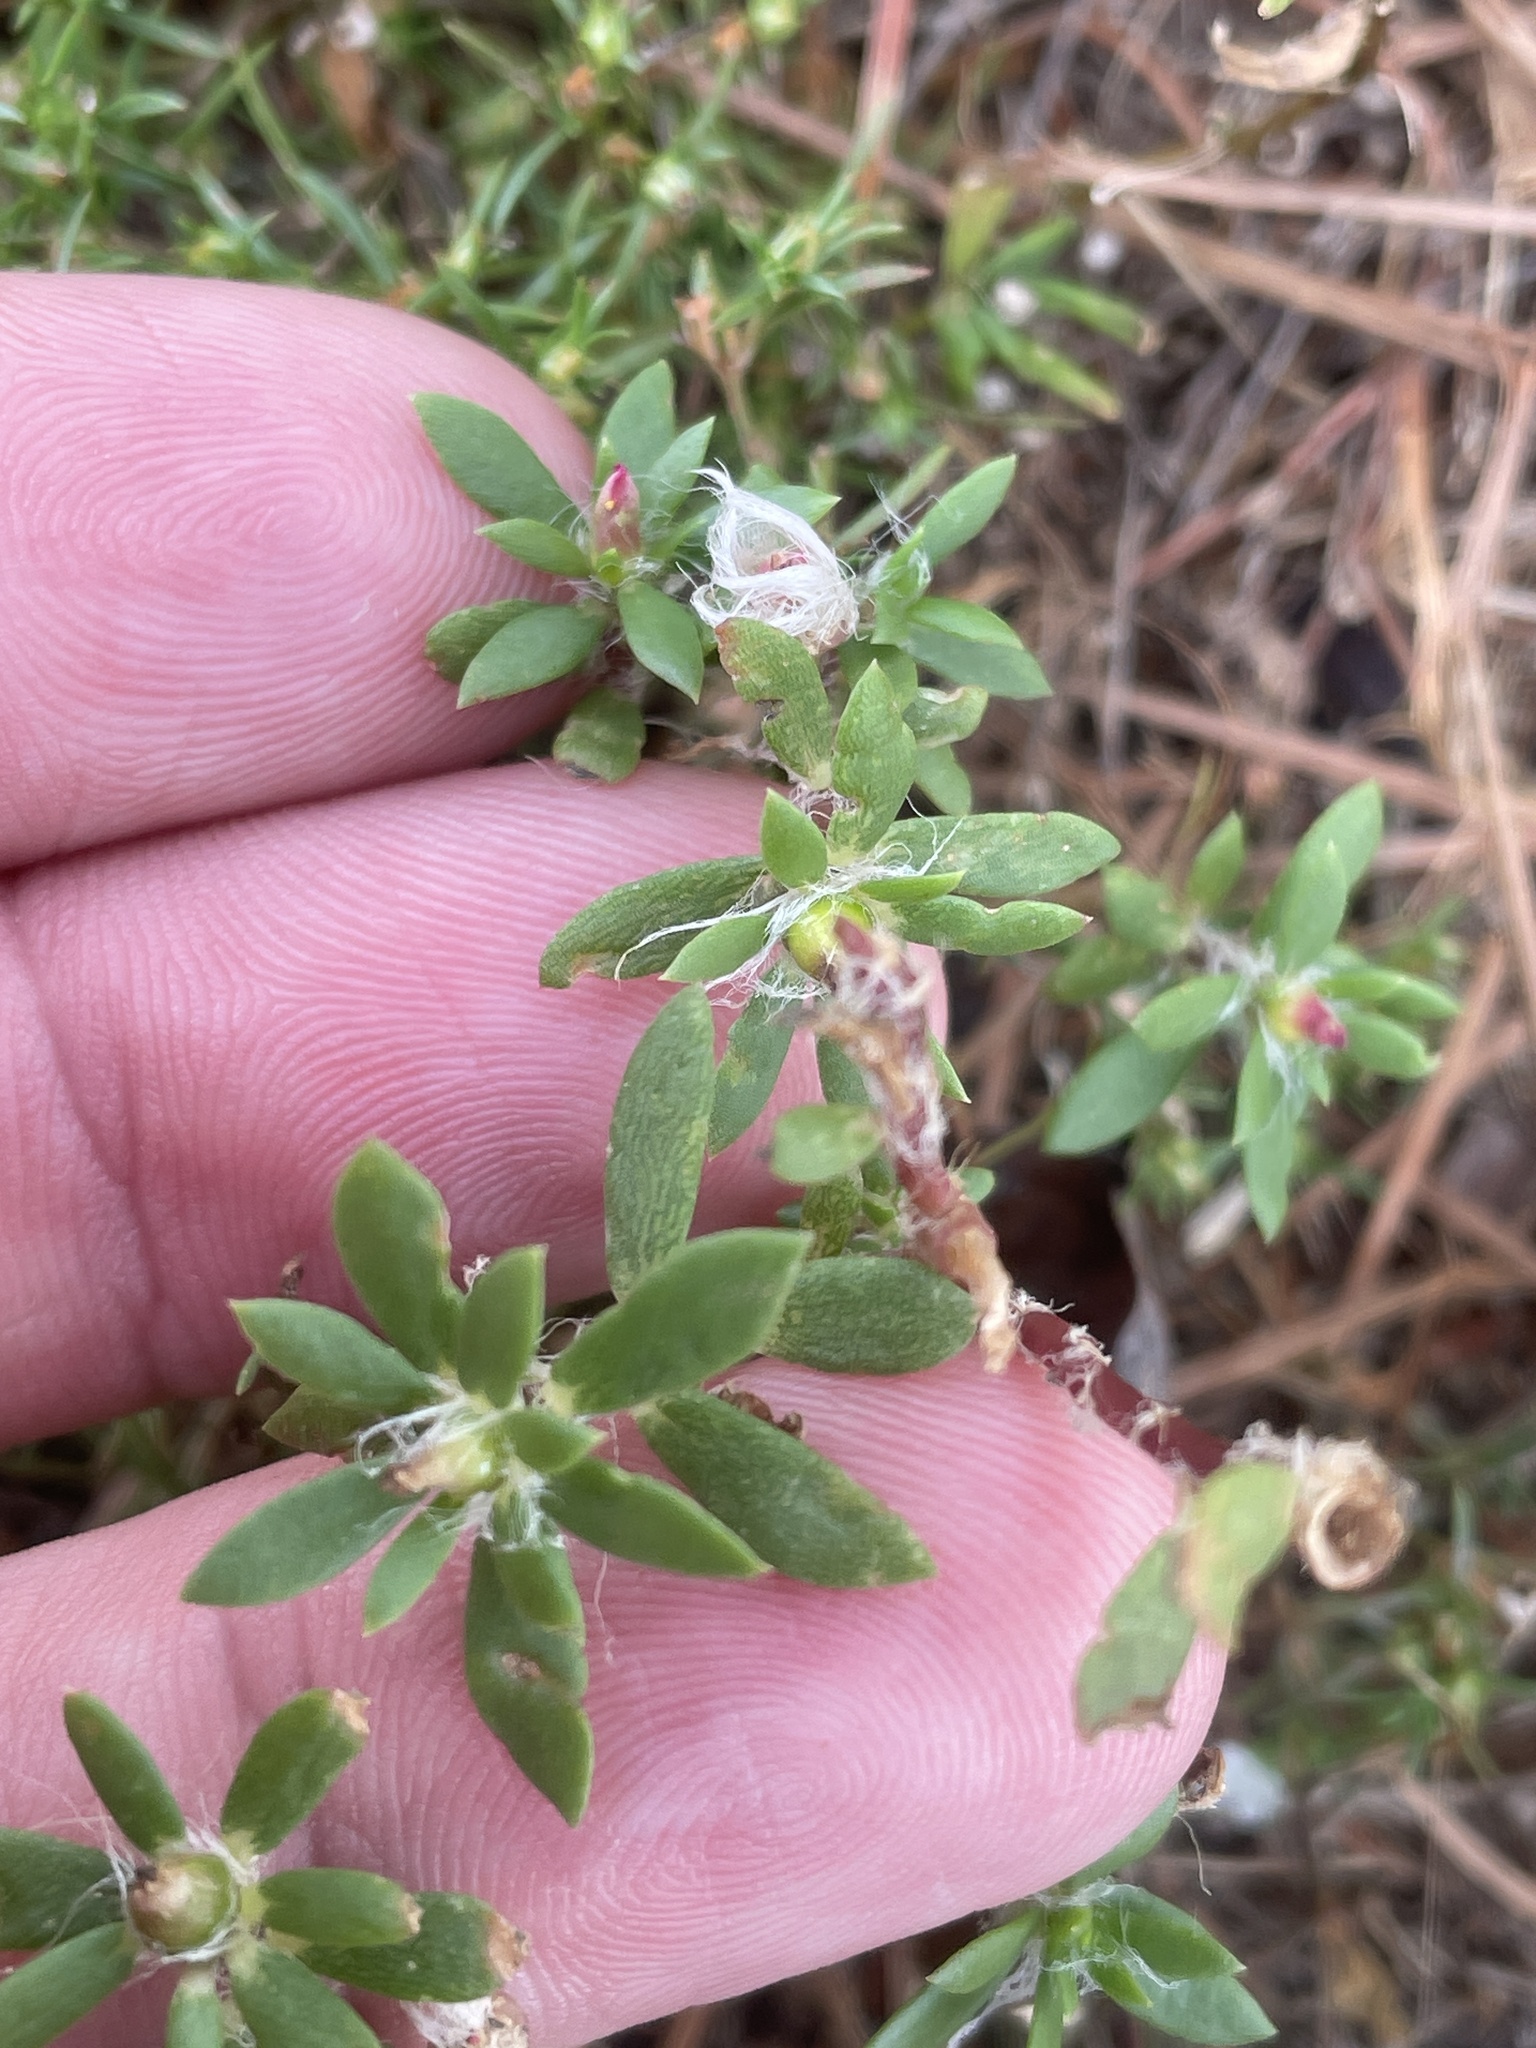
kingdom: Plantae
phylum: Tracheophyta
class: Magnoliopsida
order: Caryophyllales
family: Portulacaceae
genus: Portulaca
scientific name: Portulaca amilis
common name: Paraguayan purslane
